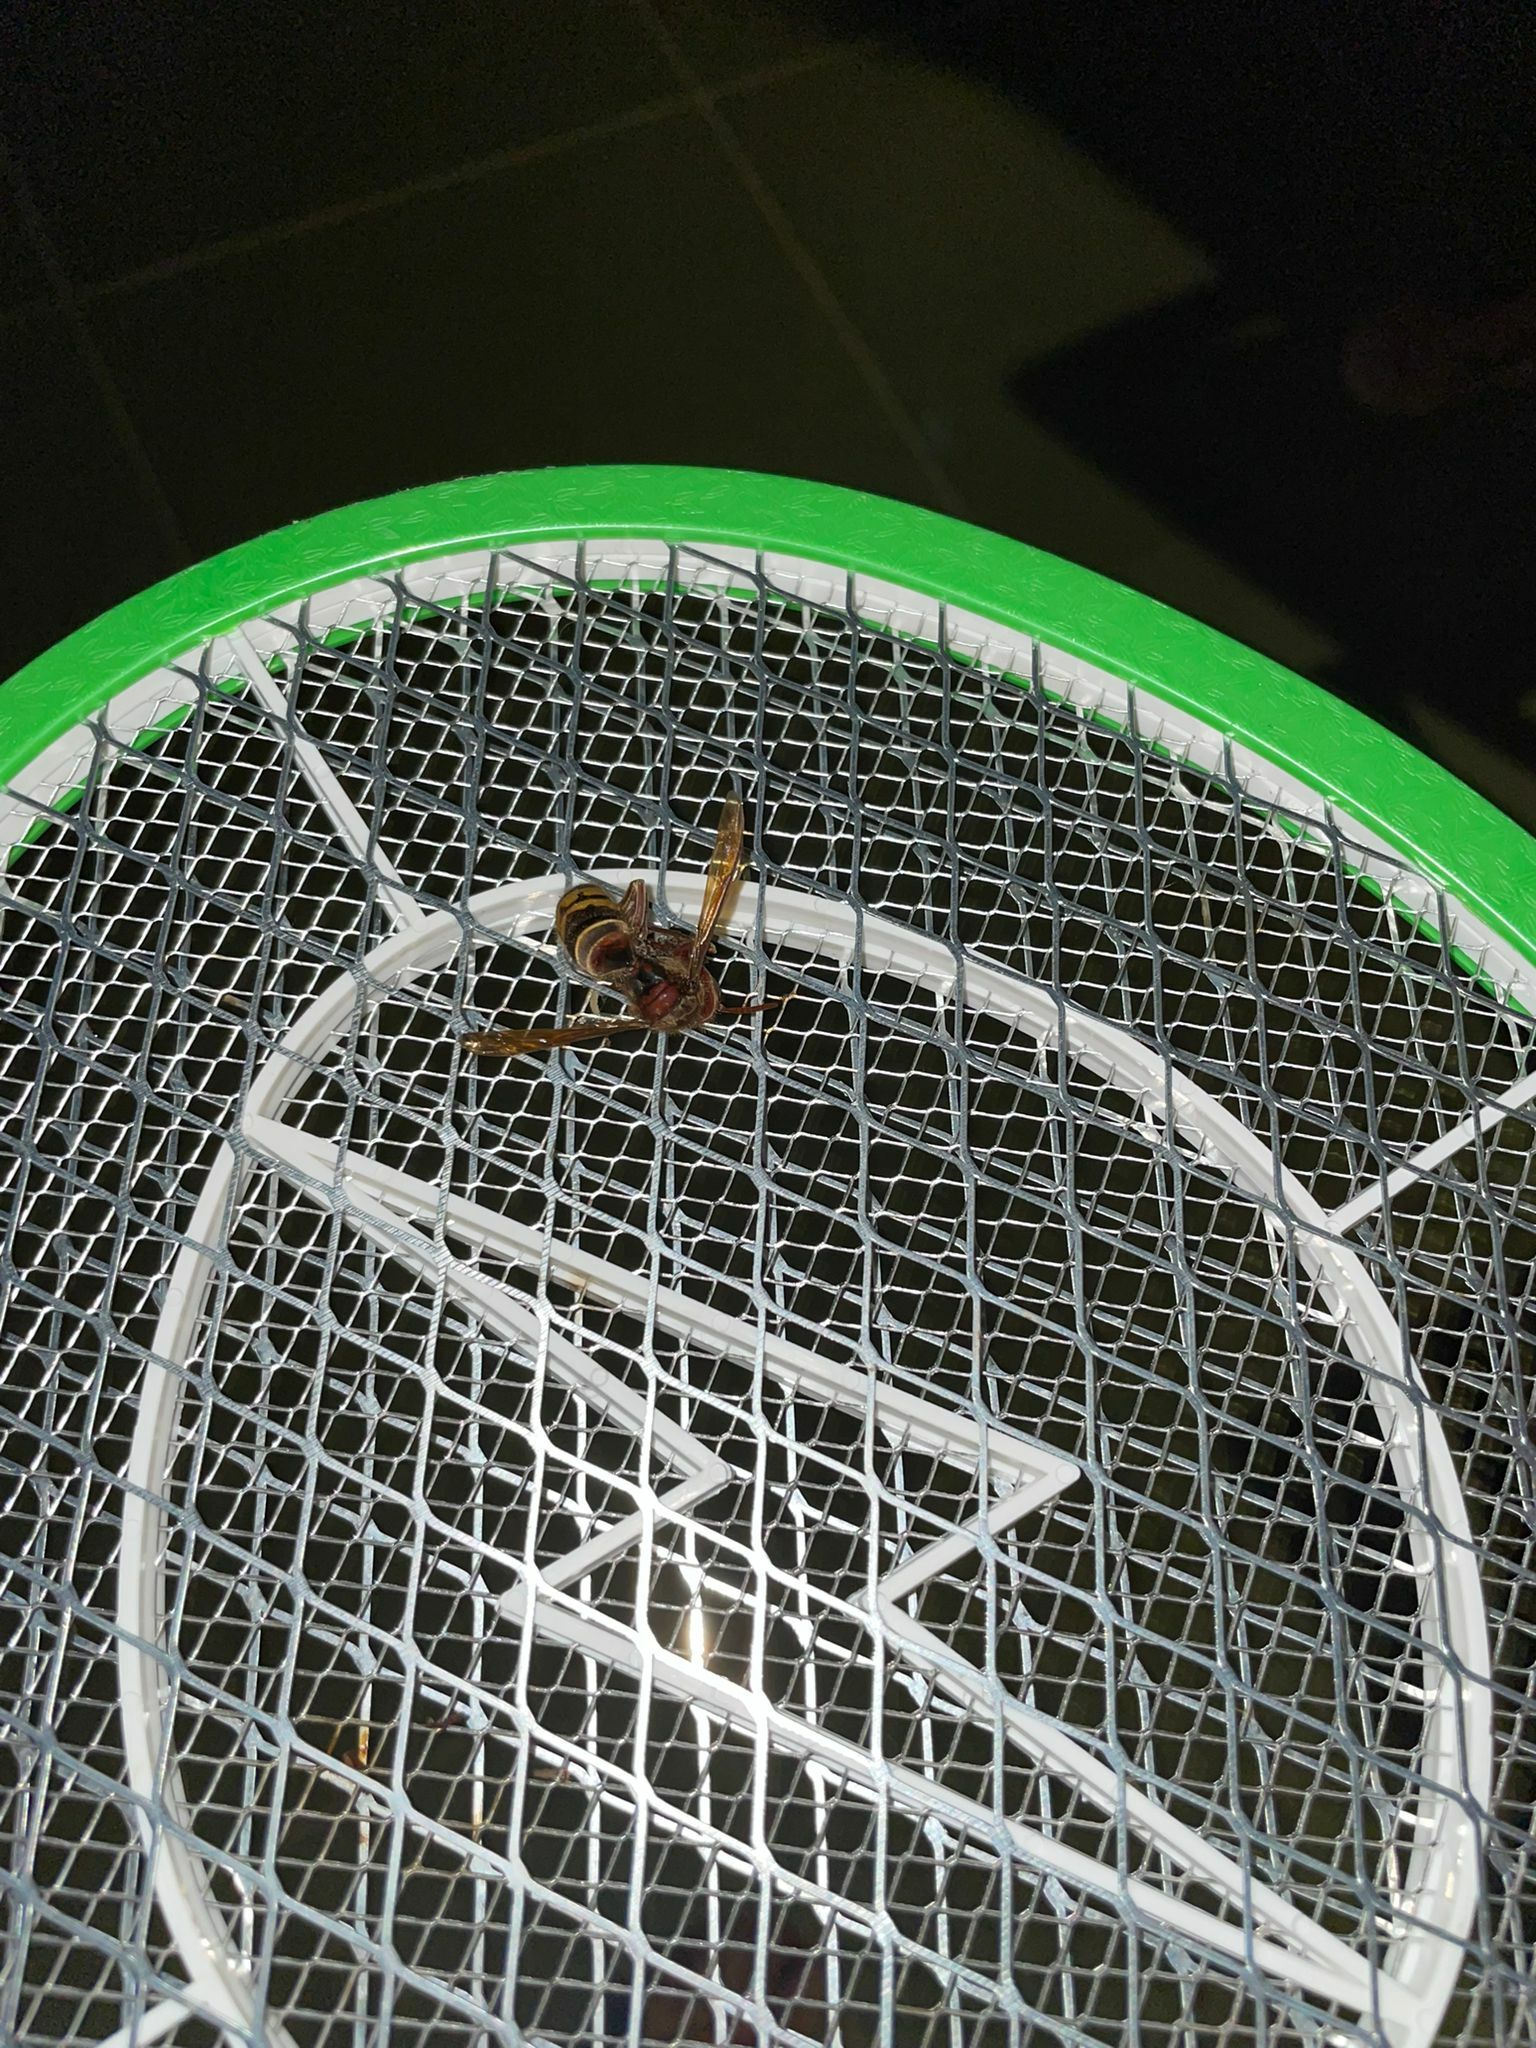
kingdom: Animalia
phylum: Arthropoda
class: Insecta
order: Hymenoptera
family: Vespidae
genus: Vespa
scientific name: Vespa crabro
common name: Hornet
